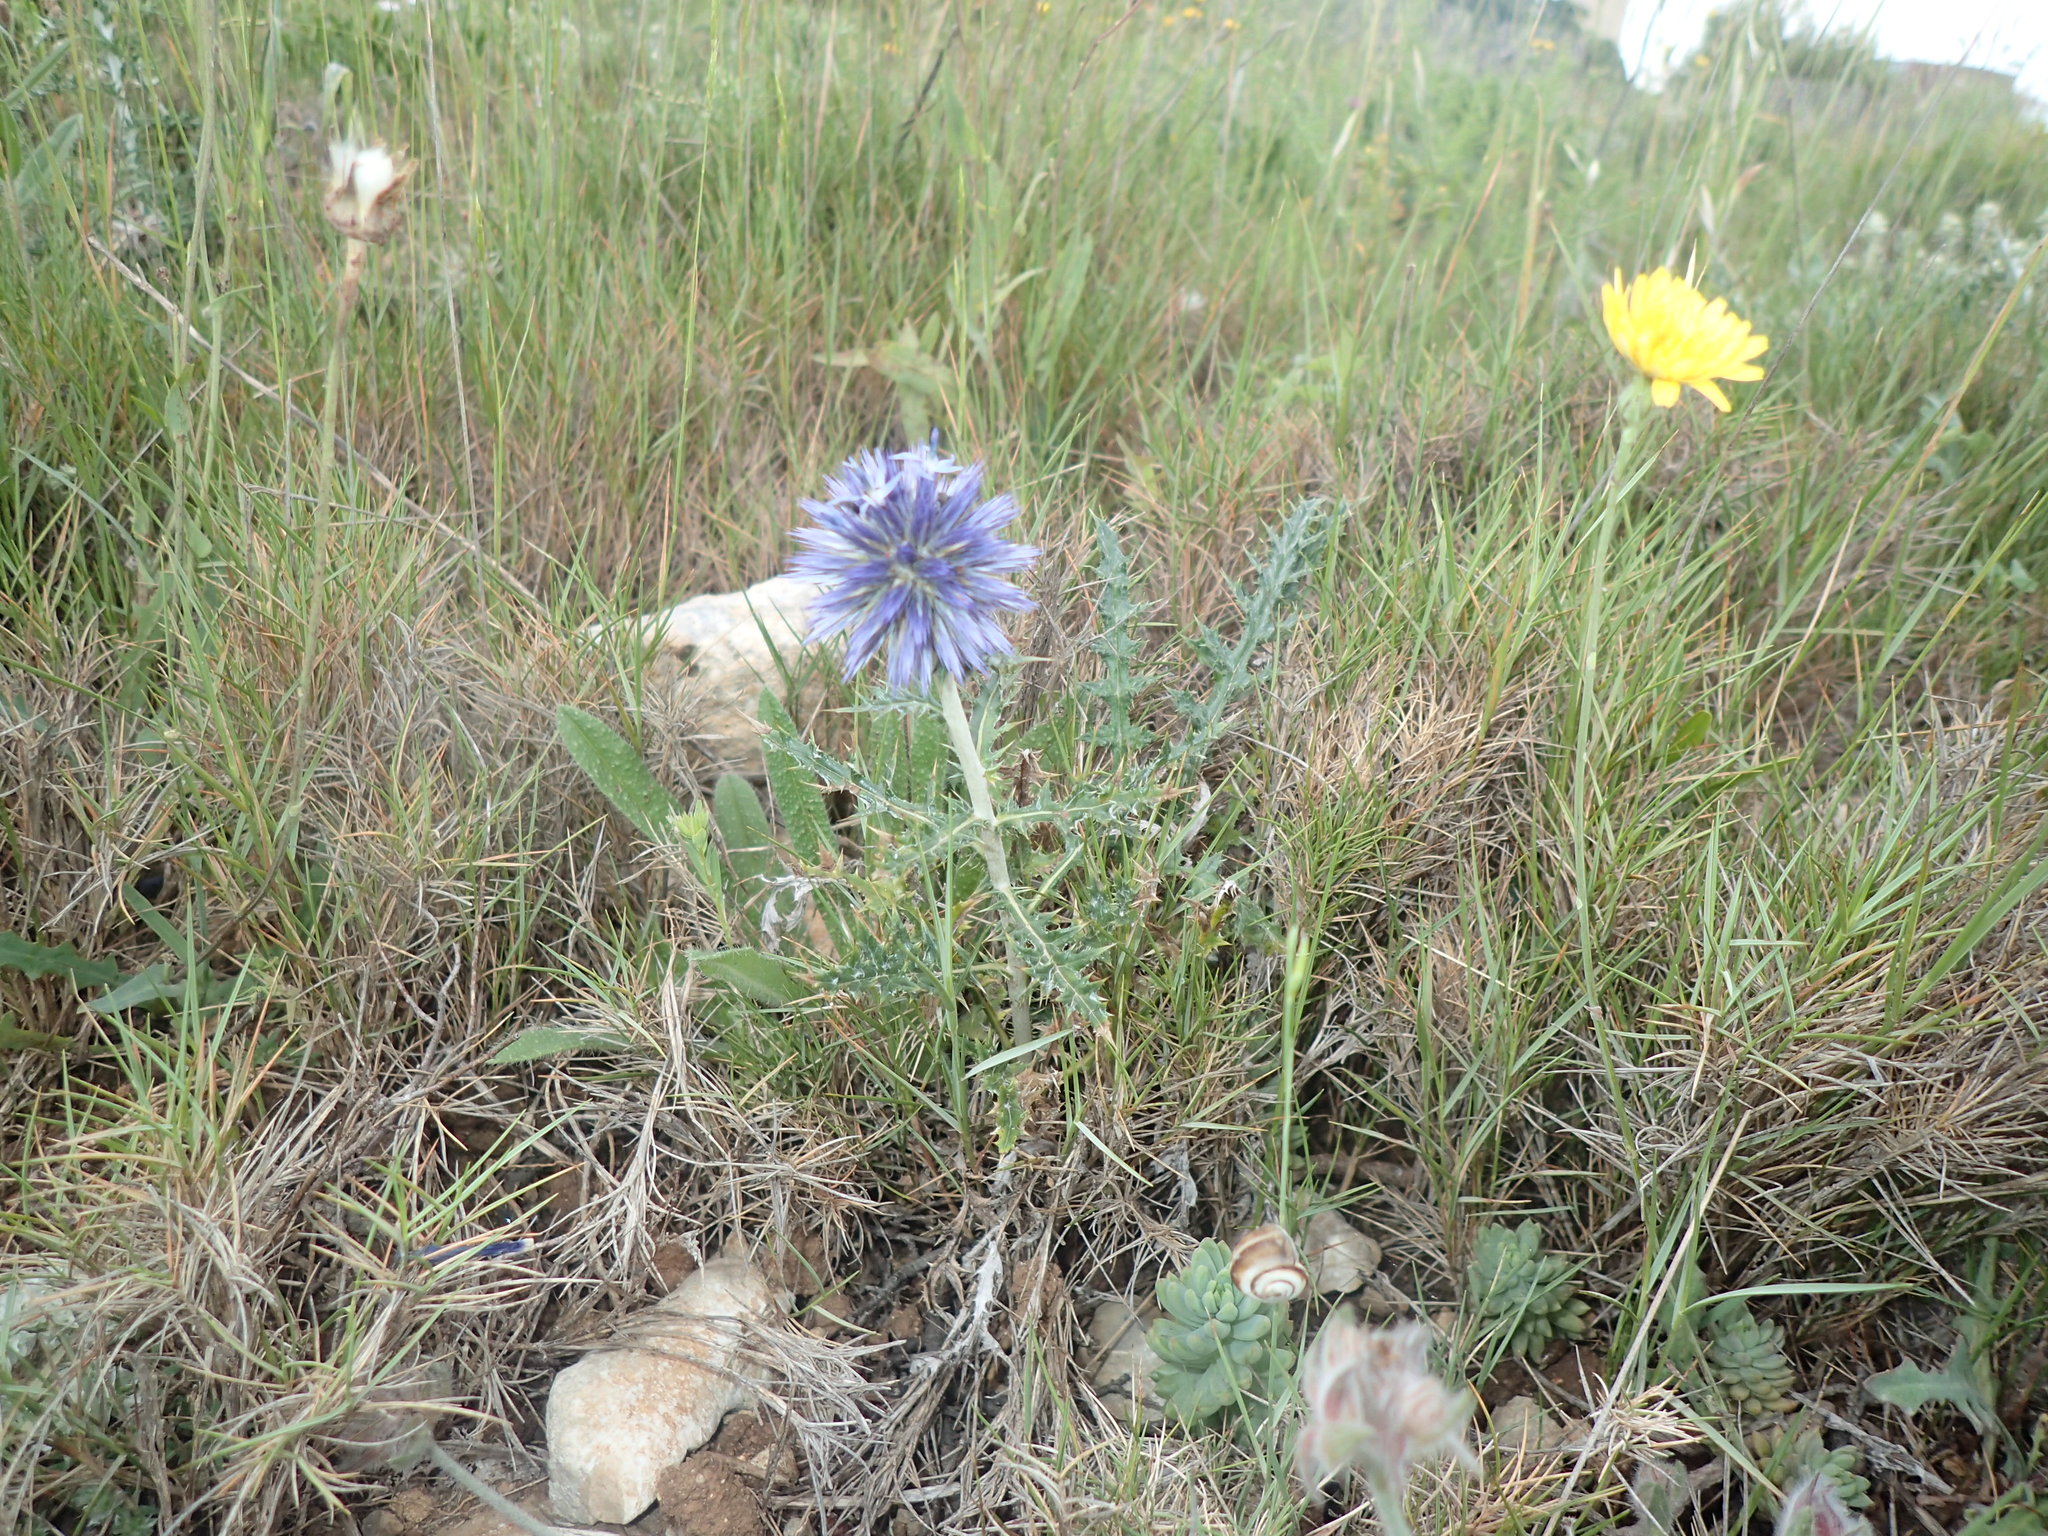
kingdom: Plantae
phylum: Tracheophyta
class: Magnoliopsida
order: Asterales
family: Asteraceae
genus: Echinops
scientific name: Echinops ritro
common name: Globe thistle
